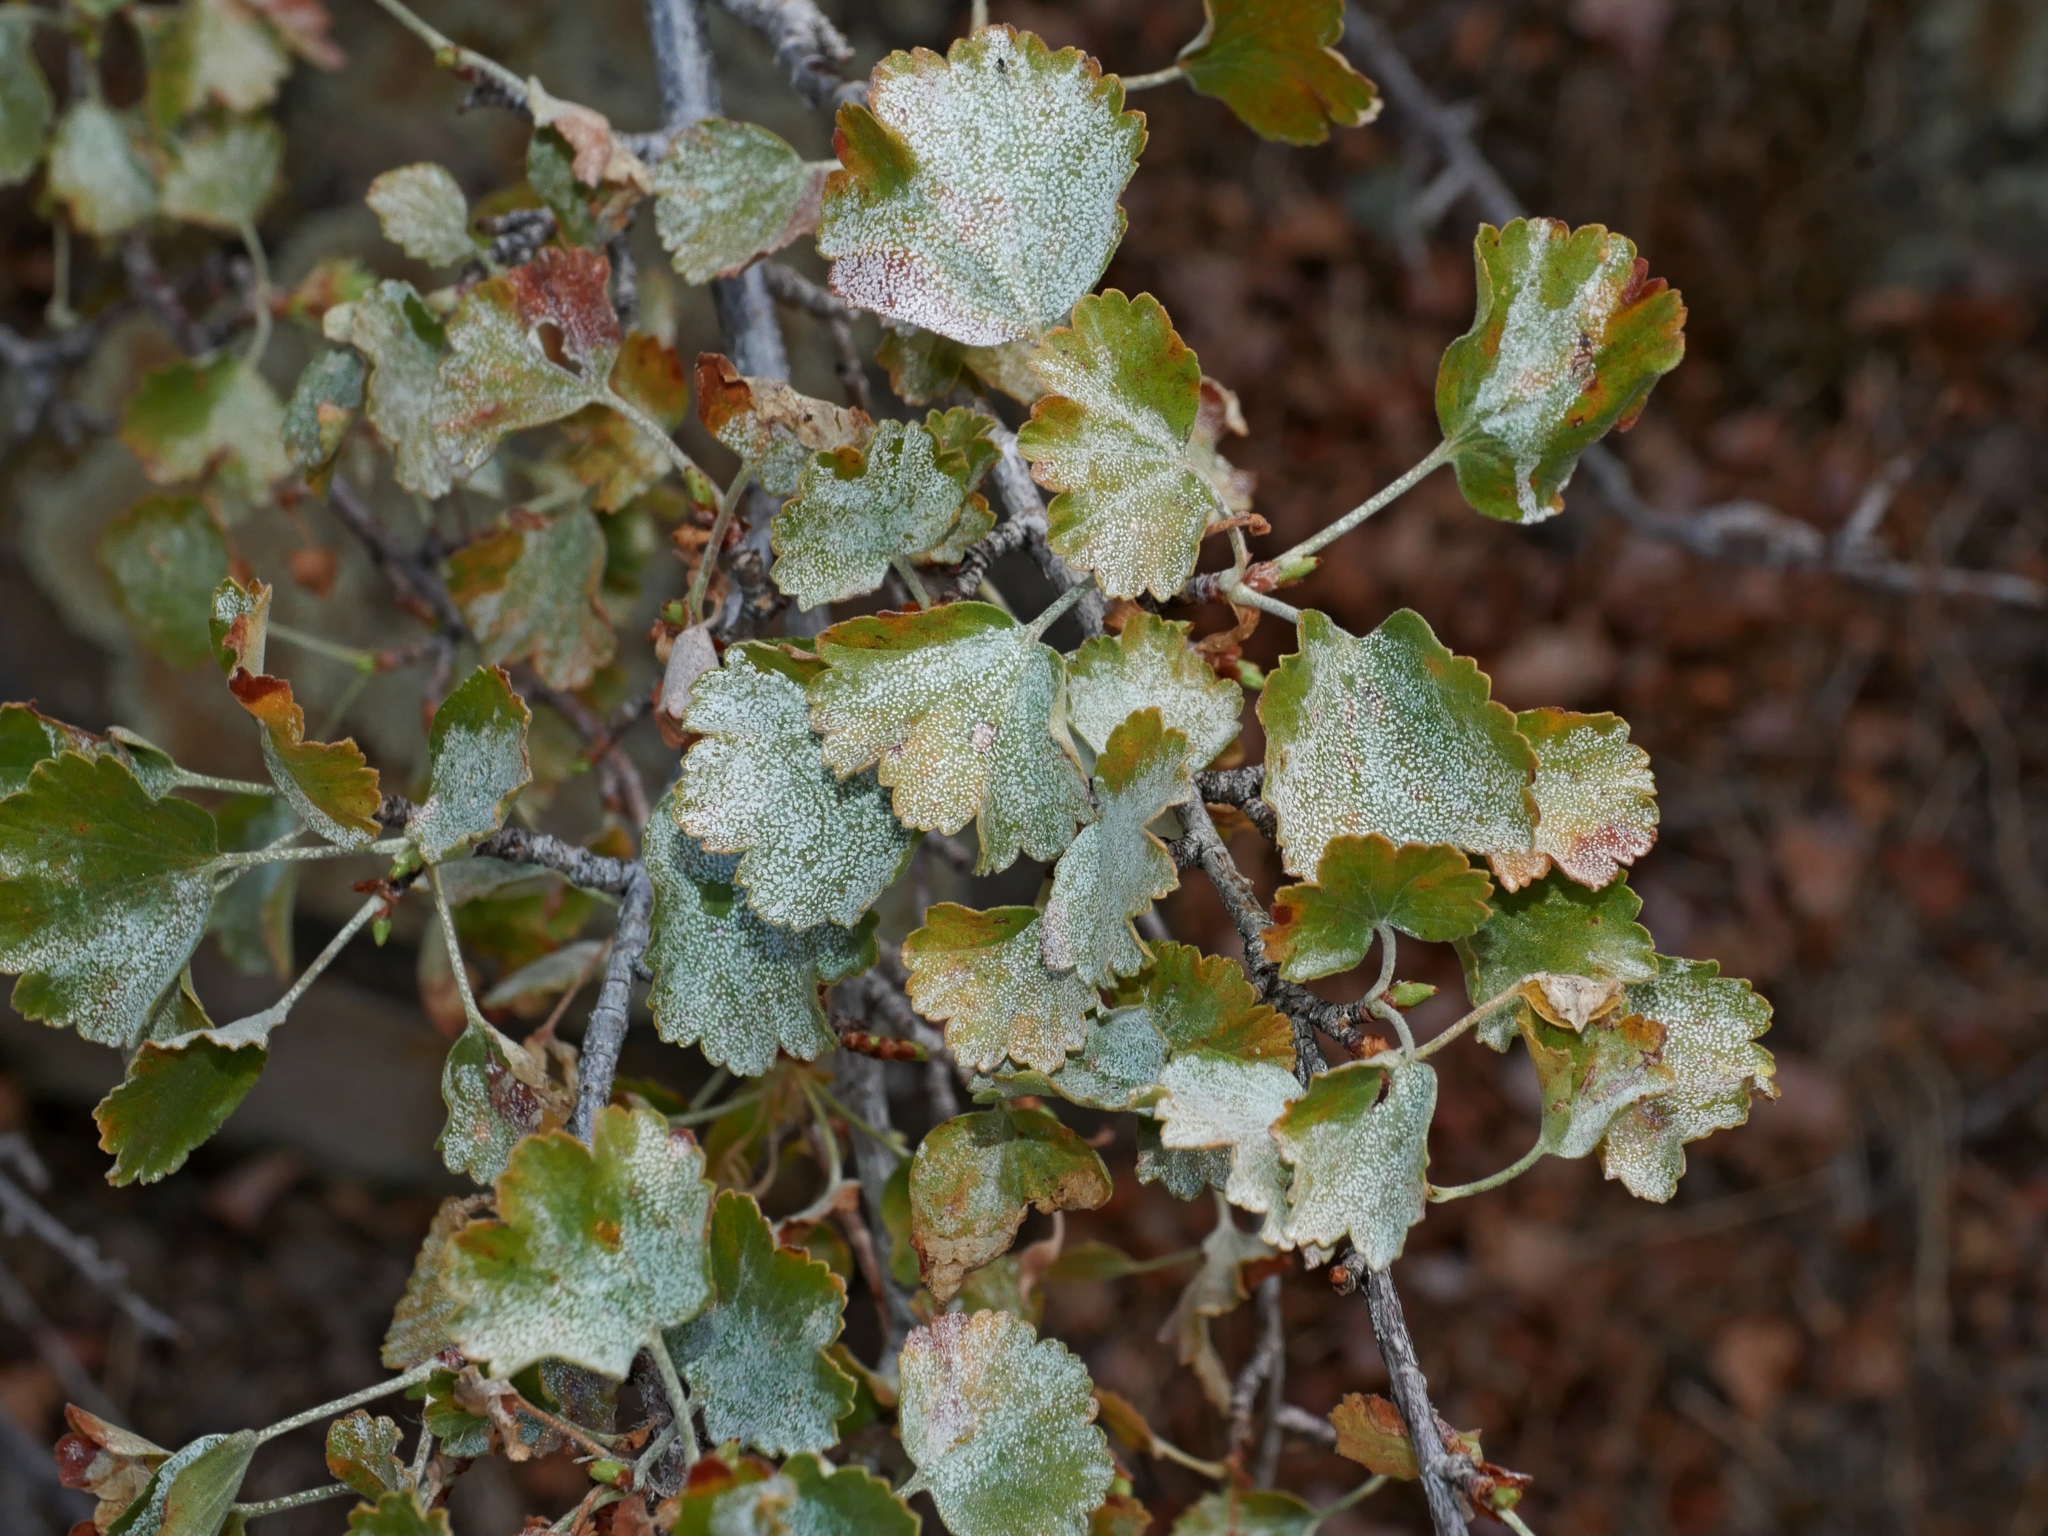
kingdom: Plantae
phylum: Tracheophyta
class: Magnoliopsida
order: Saxifragales
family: Grossulariaceae
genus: Ribes
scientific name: Ribes cereum
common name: Wax currant
